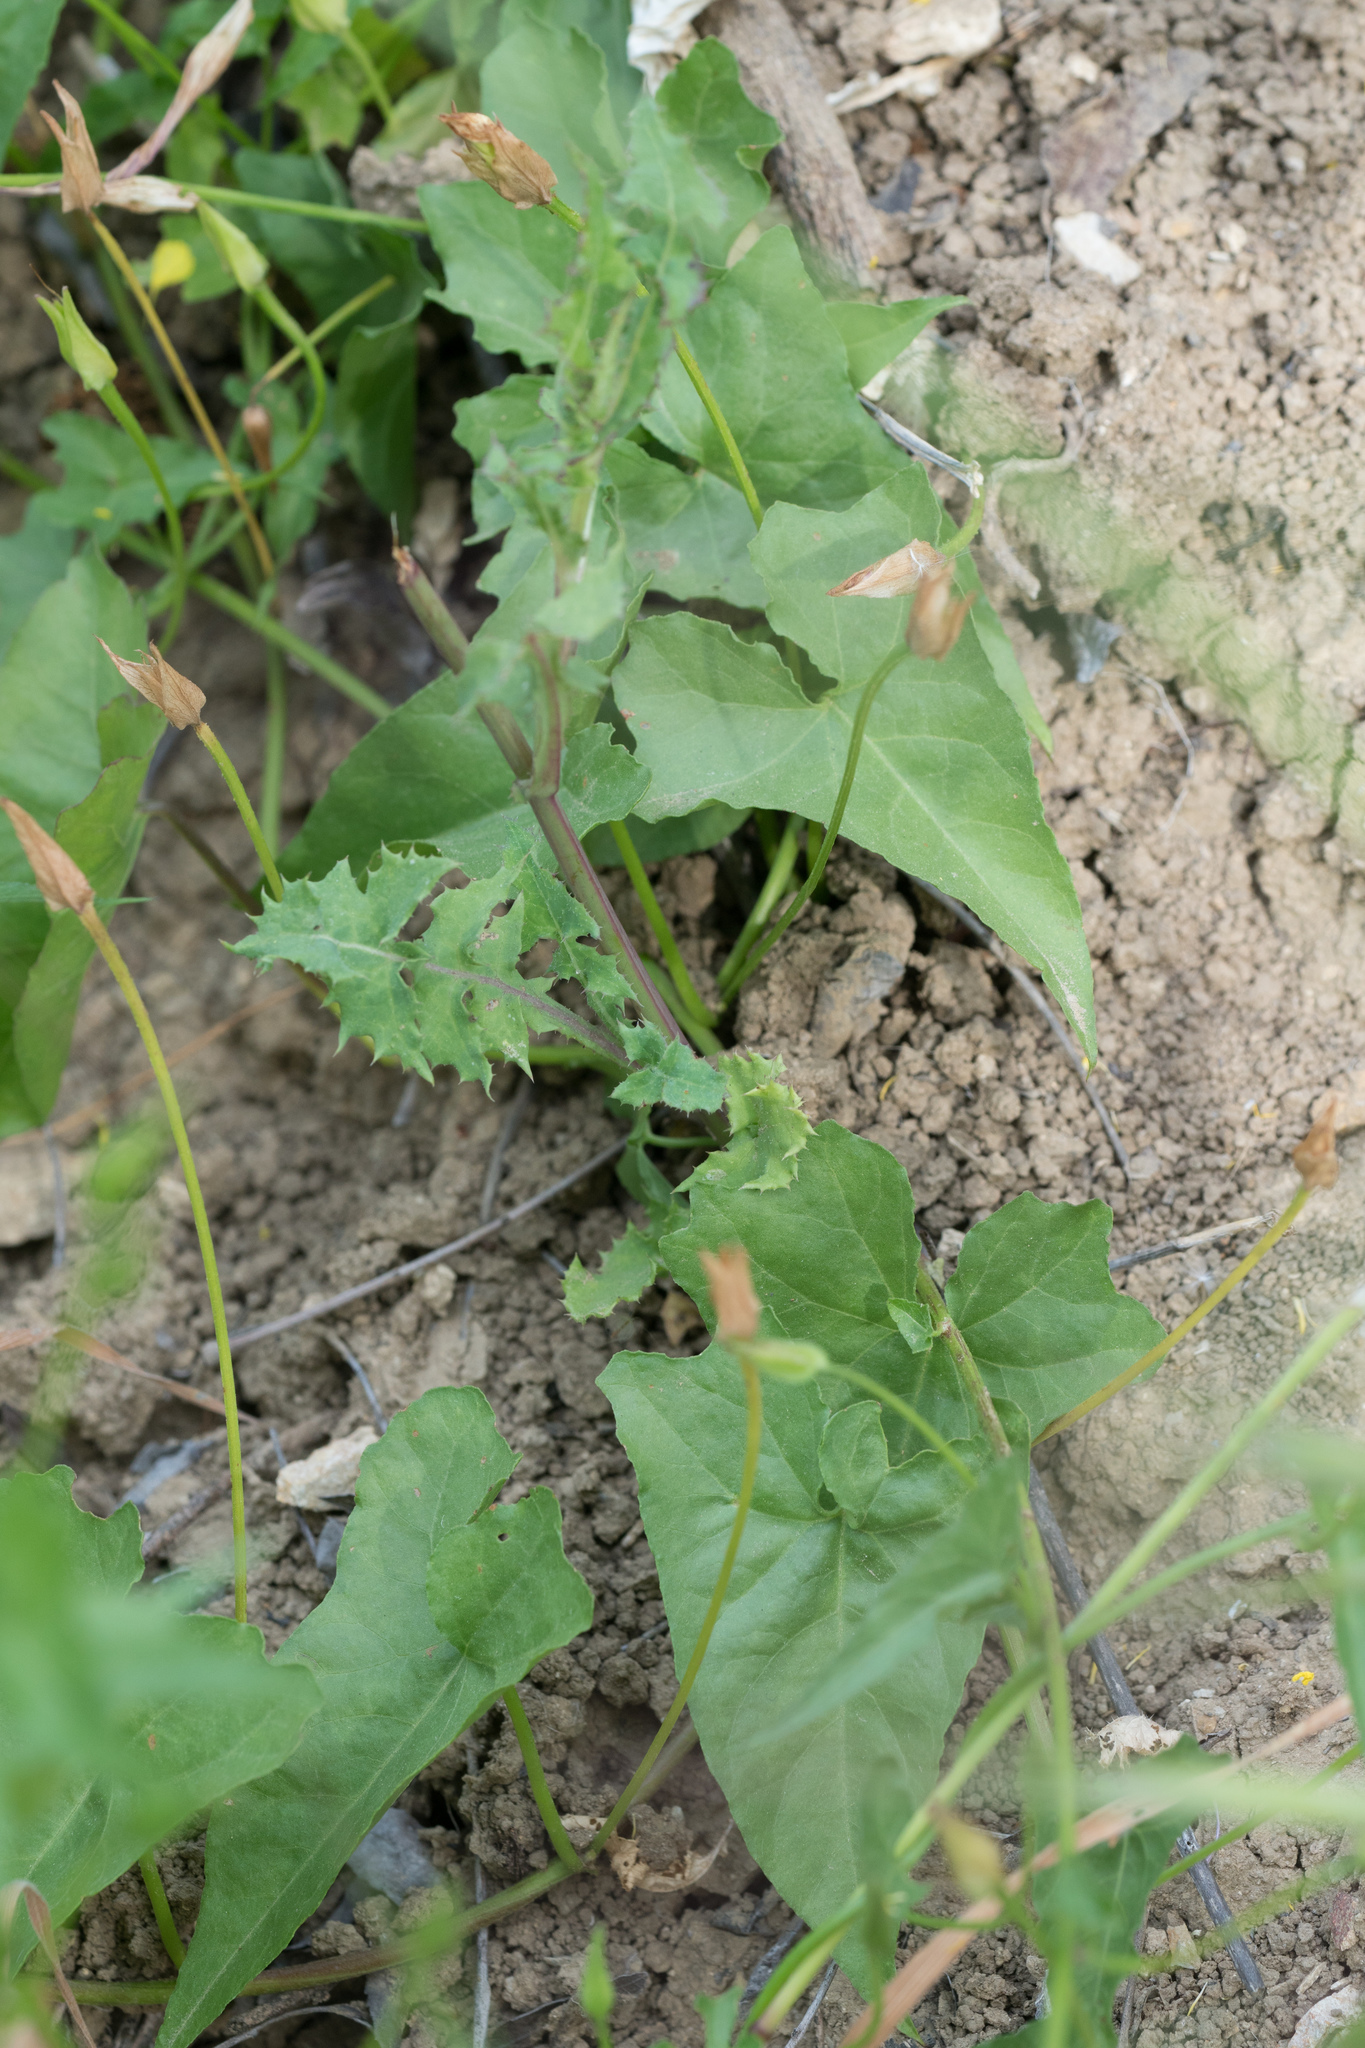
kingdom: Plantae
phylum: Tracheophyta
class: Magnoliopsida
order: Solanales
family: Convolvulaceae
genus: Calystegia
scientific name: Calystegia macrostegia
